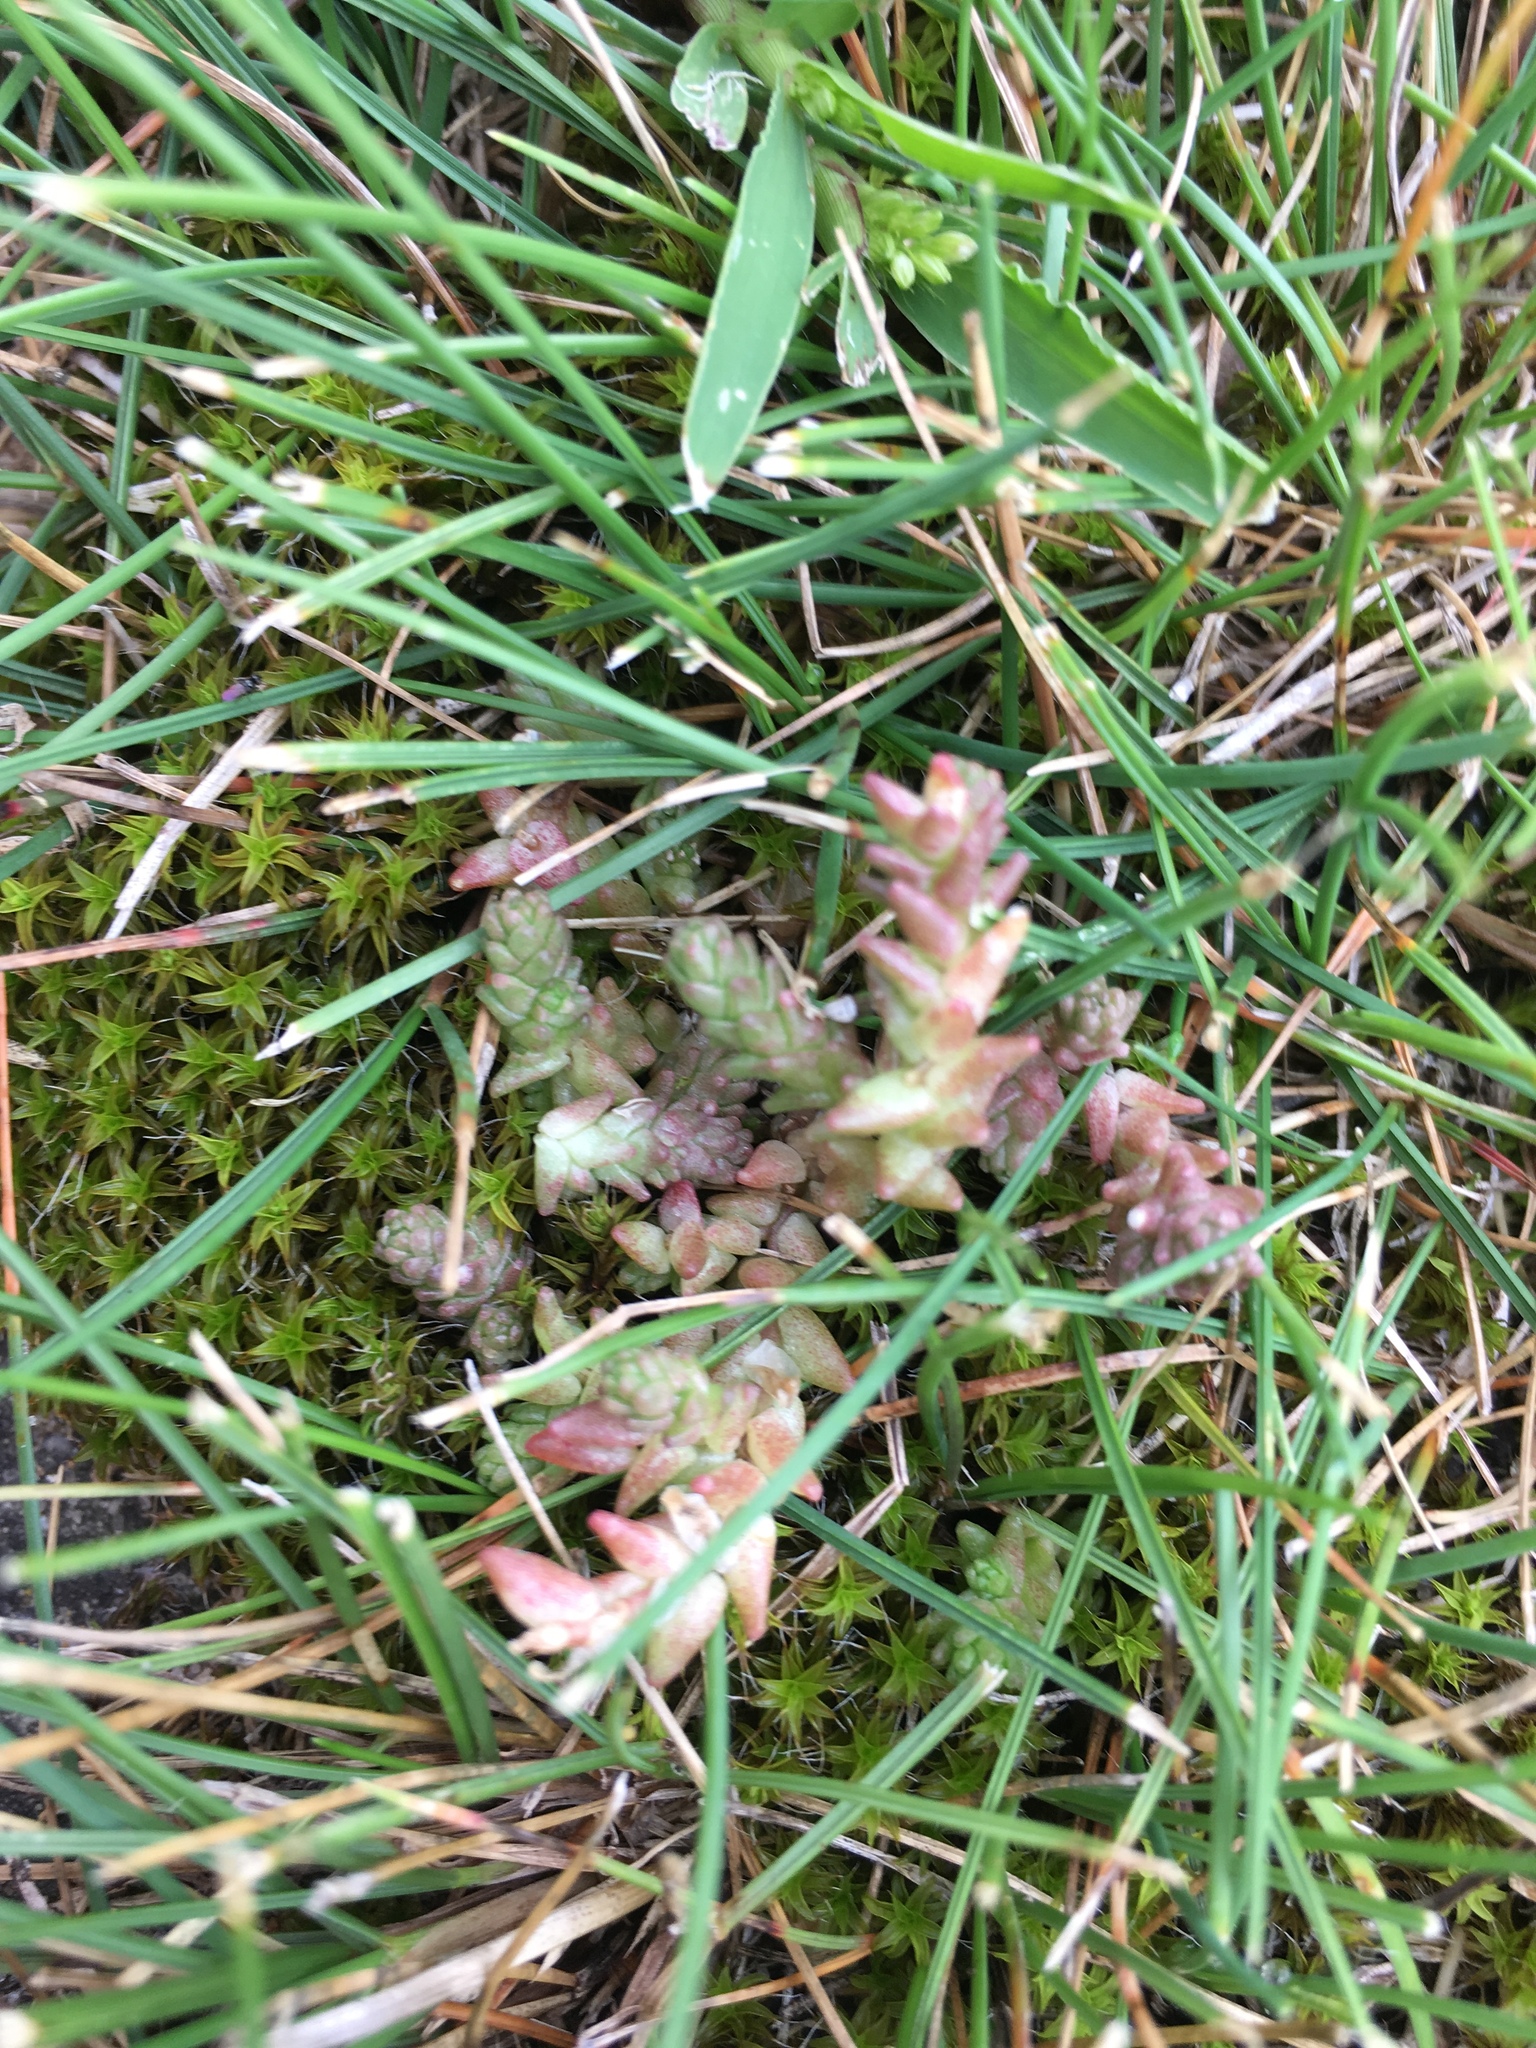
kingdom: Plantae
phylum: Tracheophyta
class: Magnoliopsida
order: Saxifragales
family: Crassulaceae
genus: Sedum
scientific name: Sedum acre
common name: Biting stonecrop
